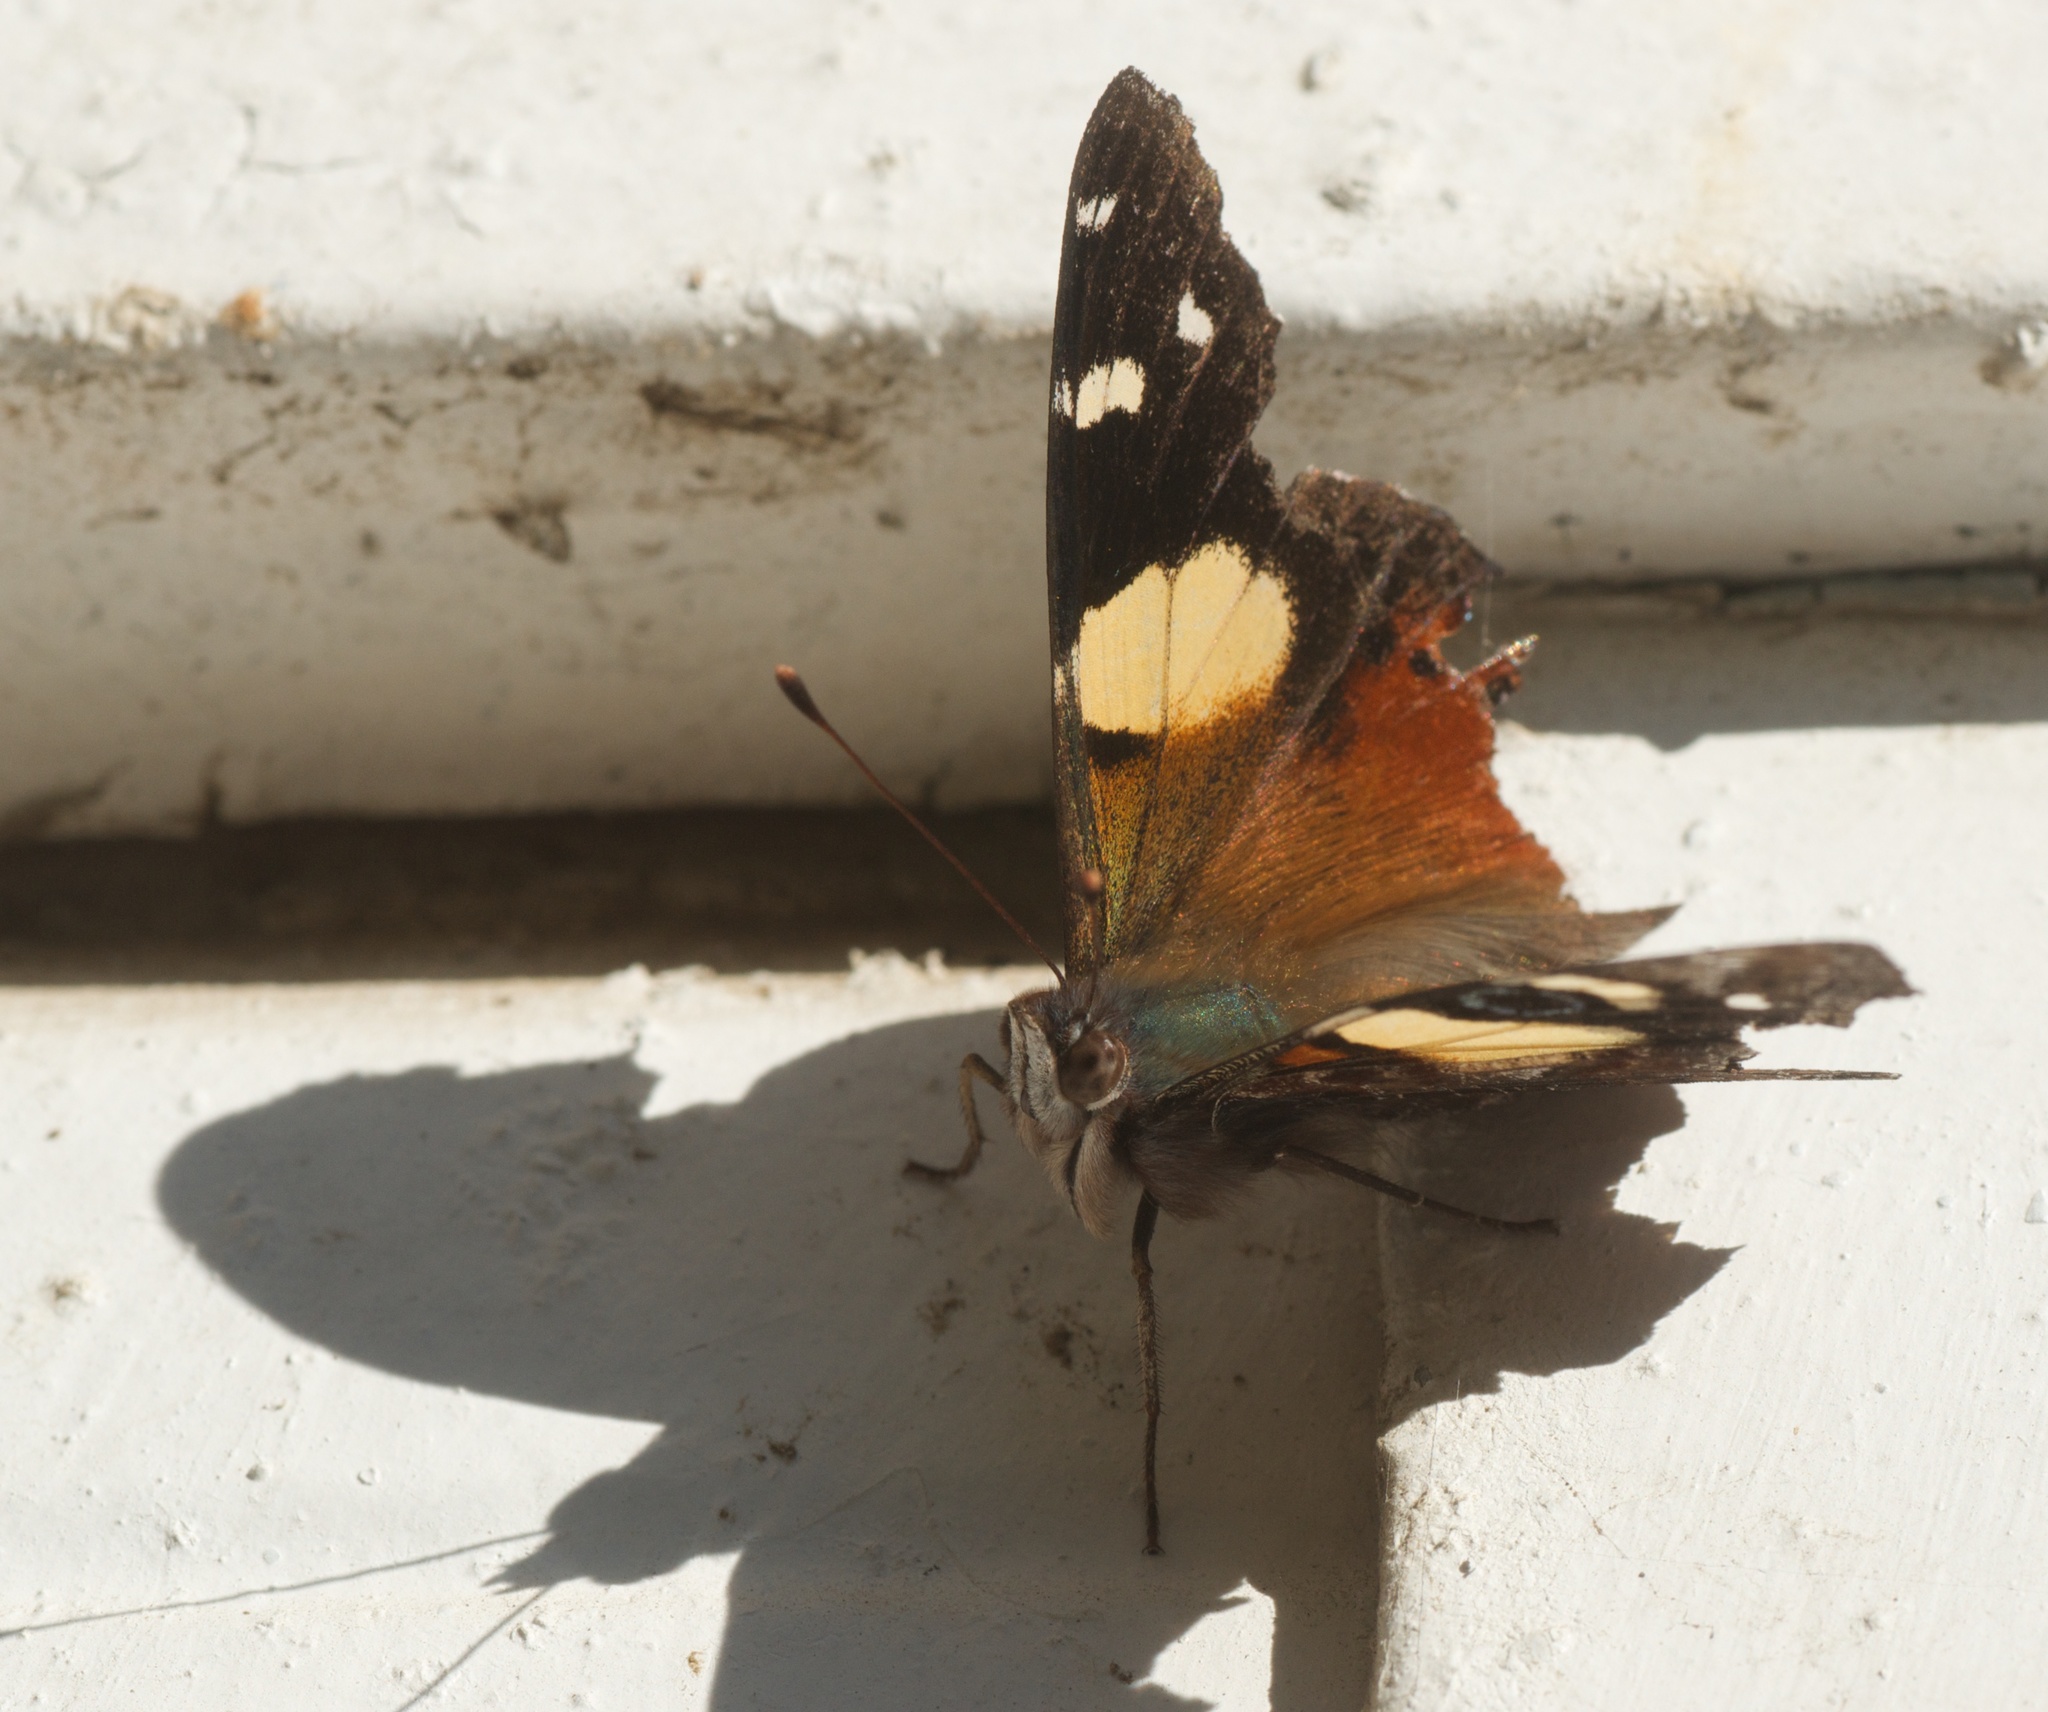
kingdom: Animalia
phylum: Arthropoda
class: Insecta
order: Lepidoptera
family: Nymphalidae
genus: Vanessa
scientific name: Vanessa itea
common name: Yellow admiral
